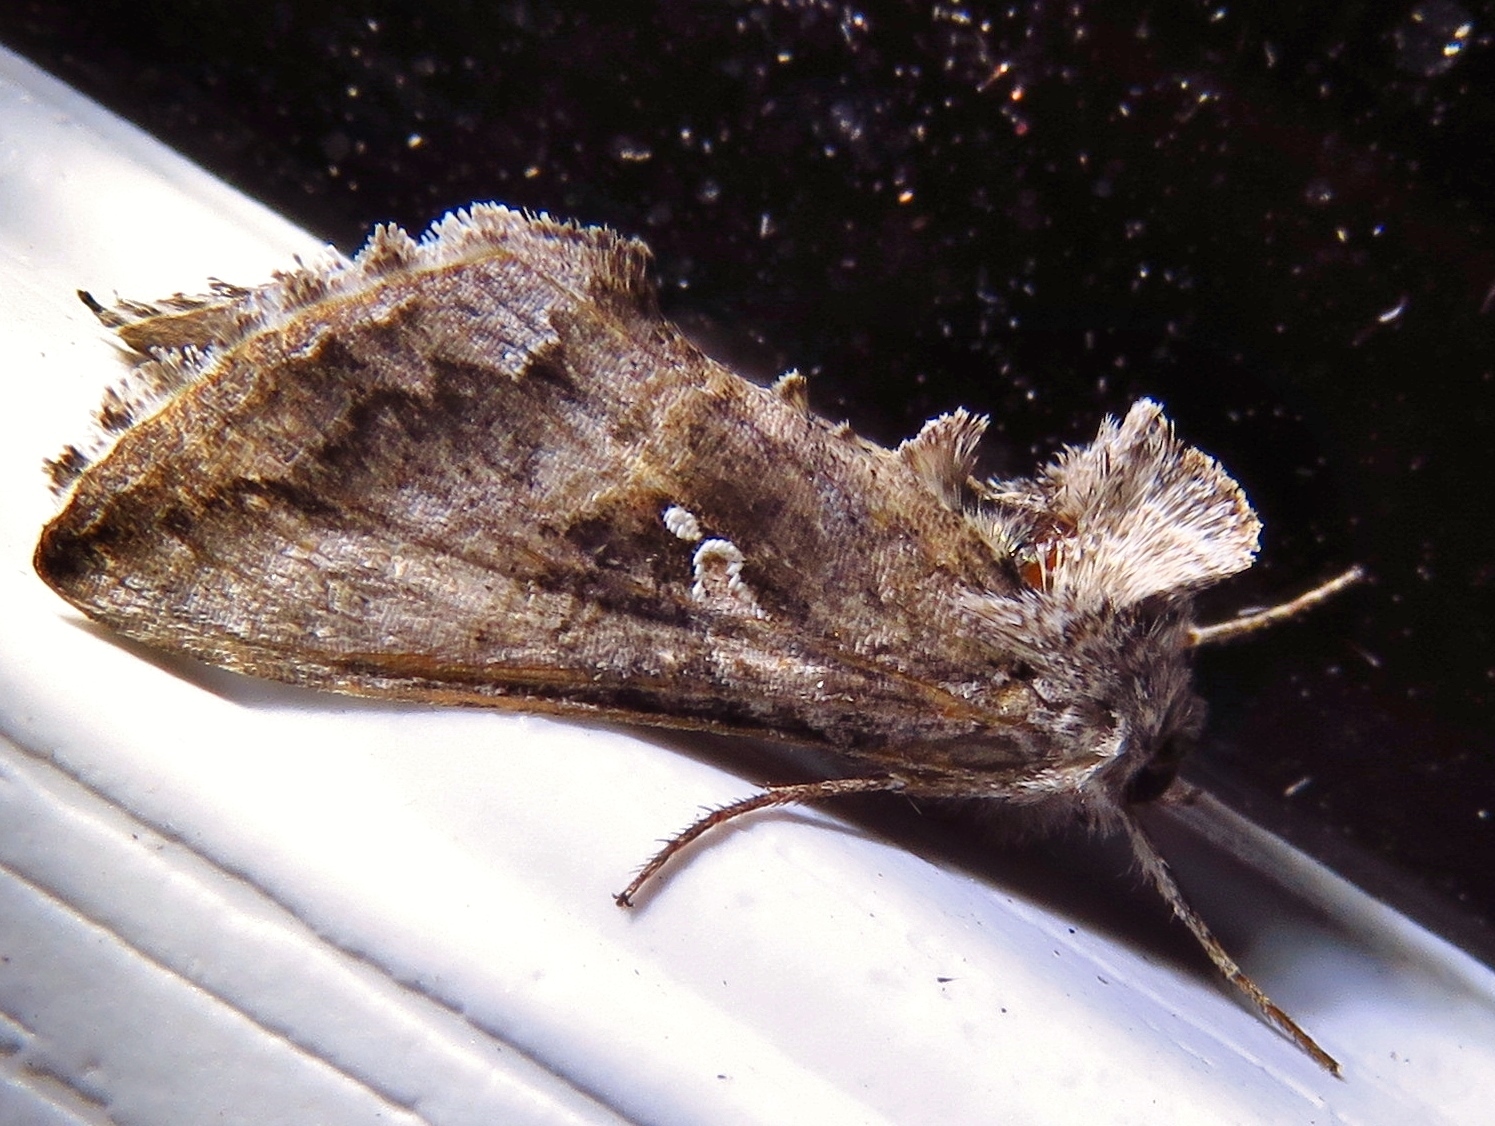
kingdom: Animalia
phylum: Arthropoda
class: Insecta
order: Lepidoptera
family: Noctuidae
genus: Rachiplusia
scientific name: Rachiplusia ou
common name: Gray looper moth
